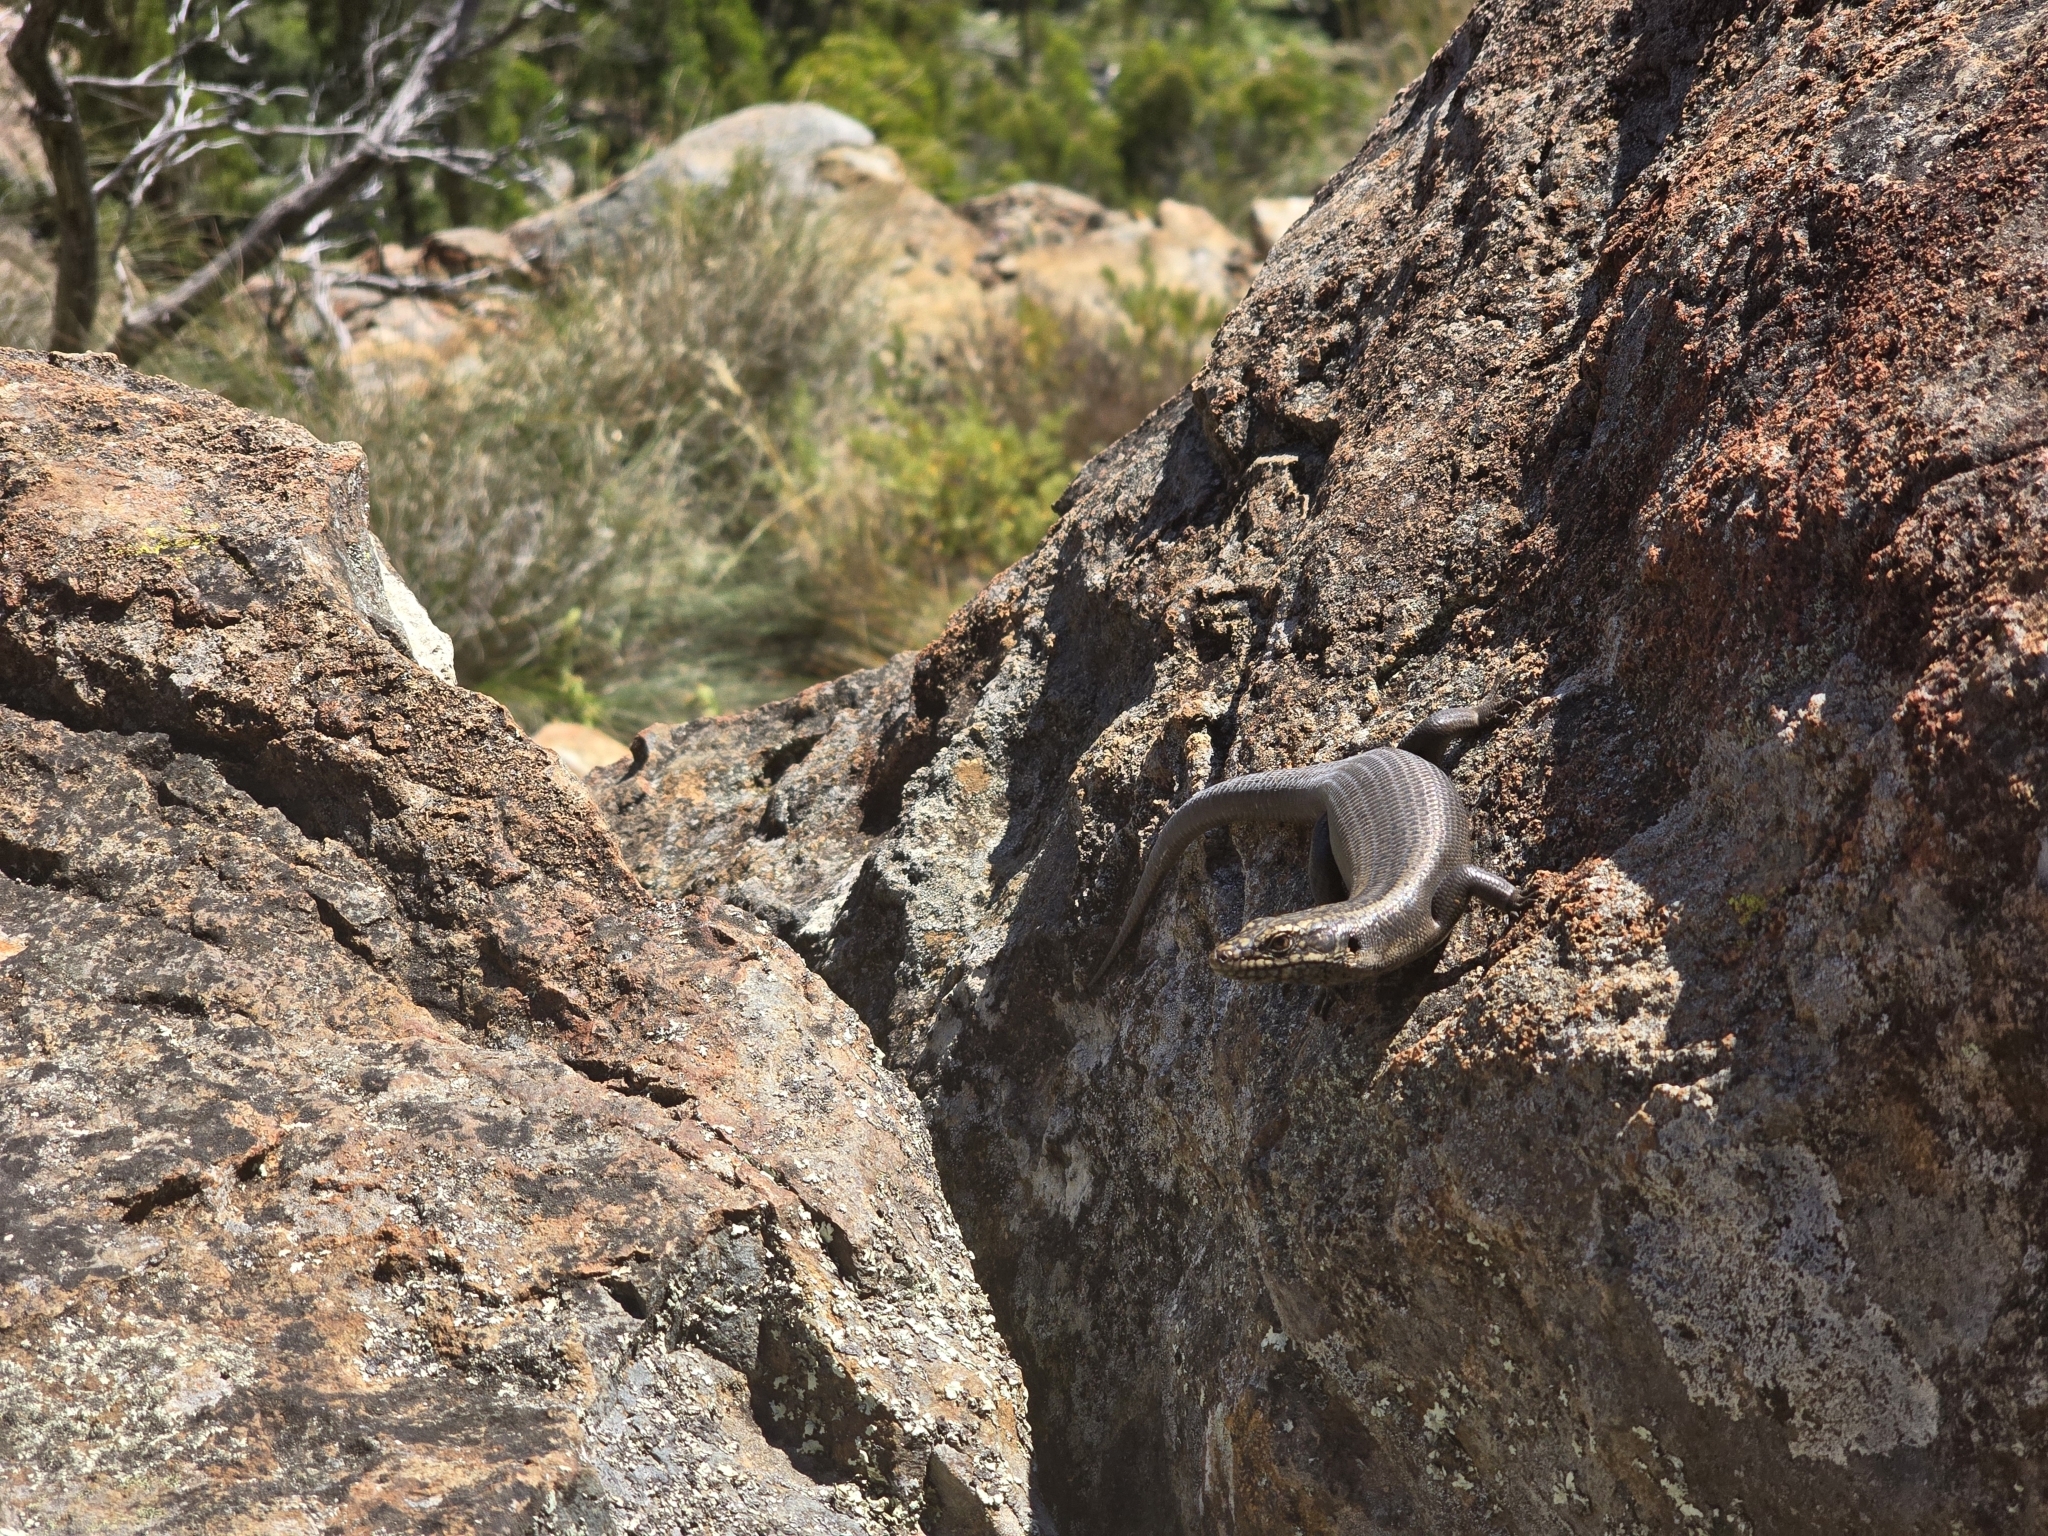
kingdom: Animalia
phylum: Chordata
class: Squamata
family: Scincidae
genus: Egernia
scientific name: Egernia roomi
